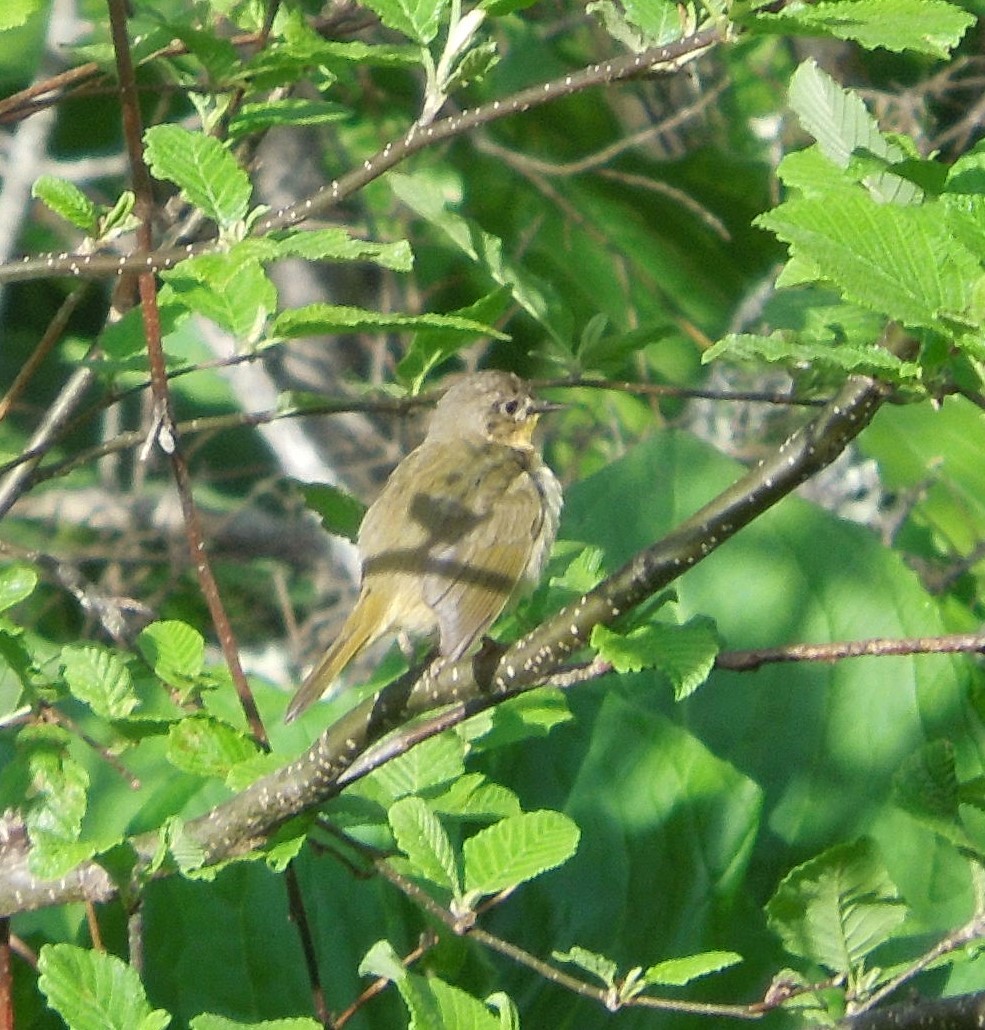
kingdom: Animalia
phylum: Chordata
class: Aves
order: Passeriformes
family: Parulidae
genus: Geothlypis
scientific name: Geothlypis trichas
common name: Common yellowthroat
